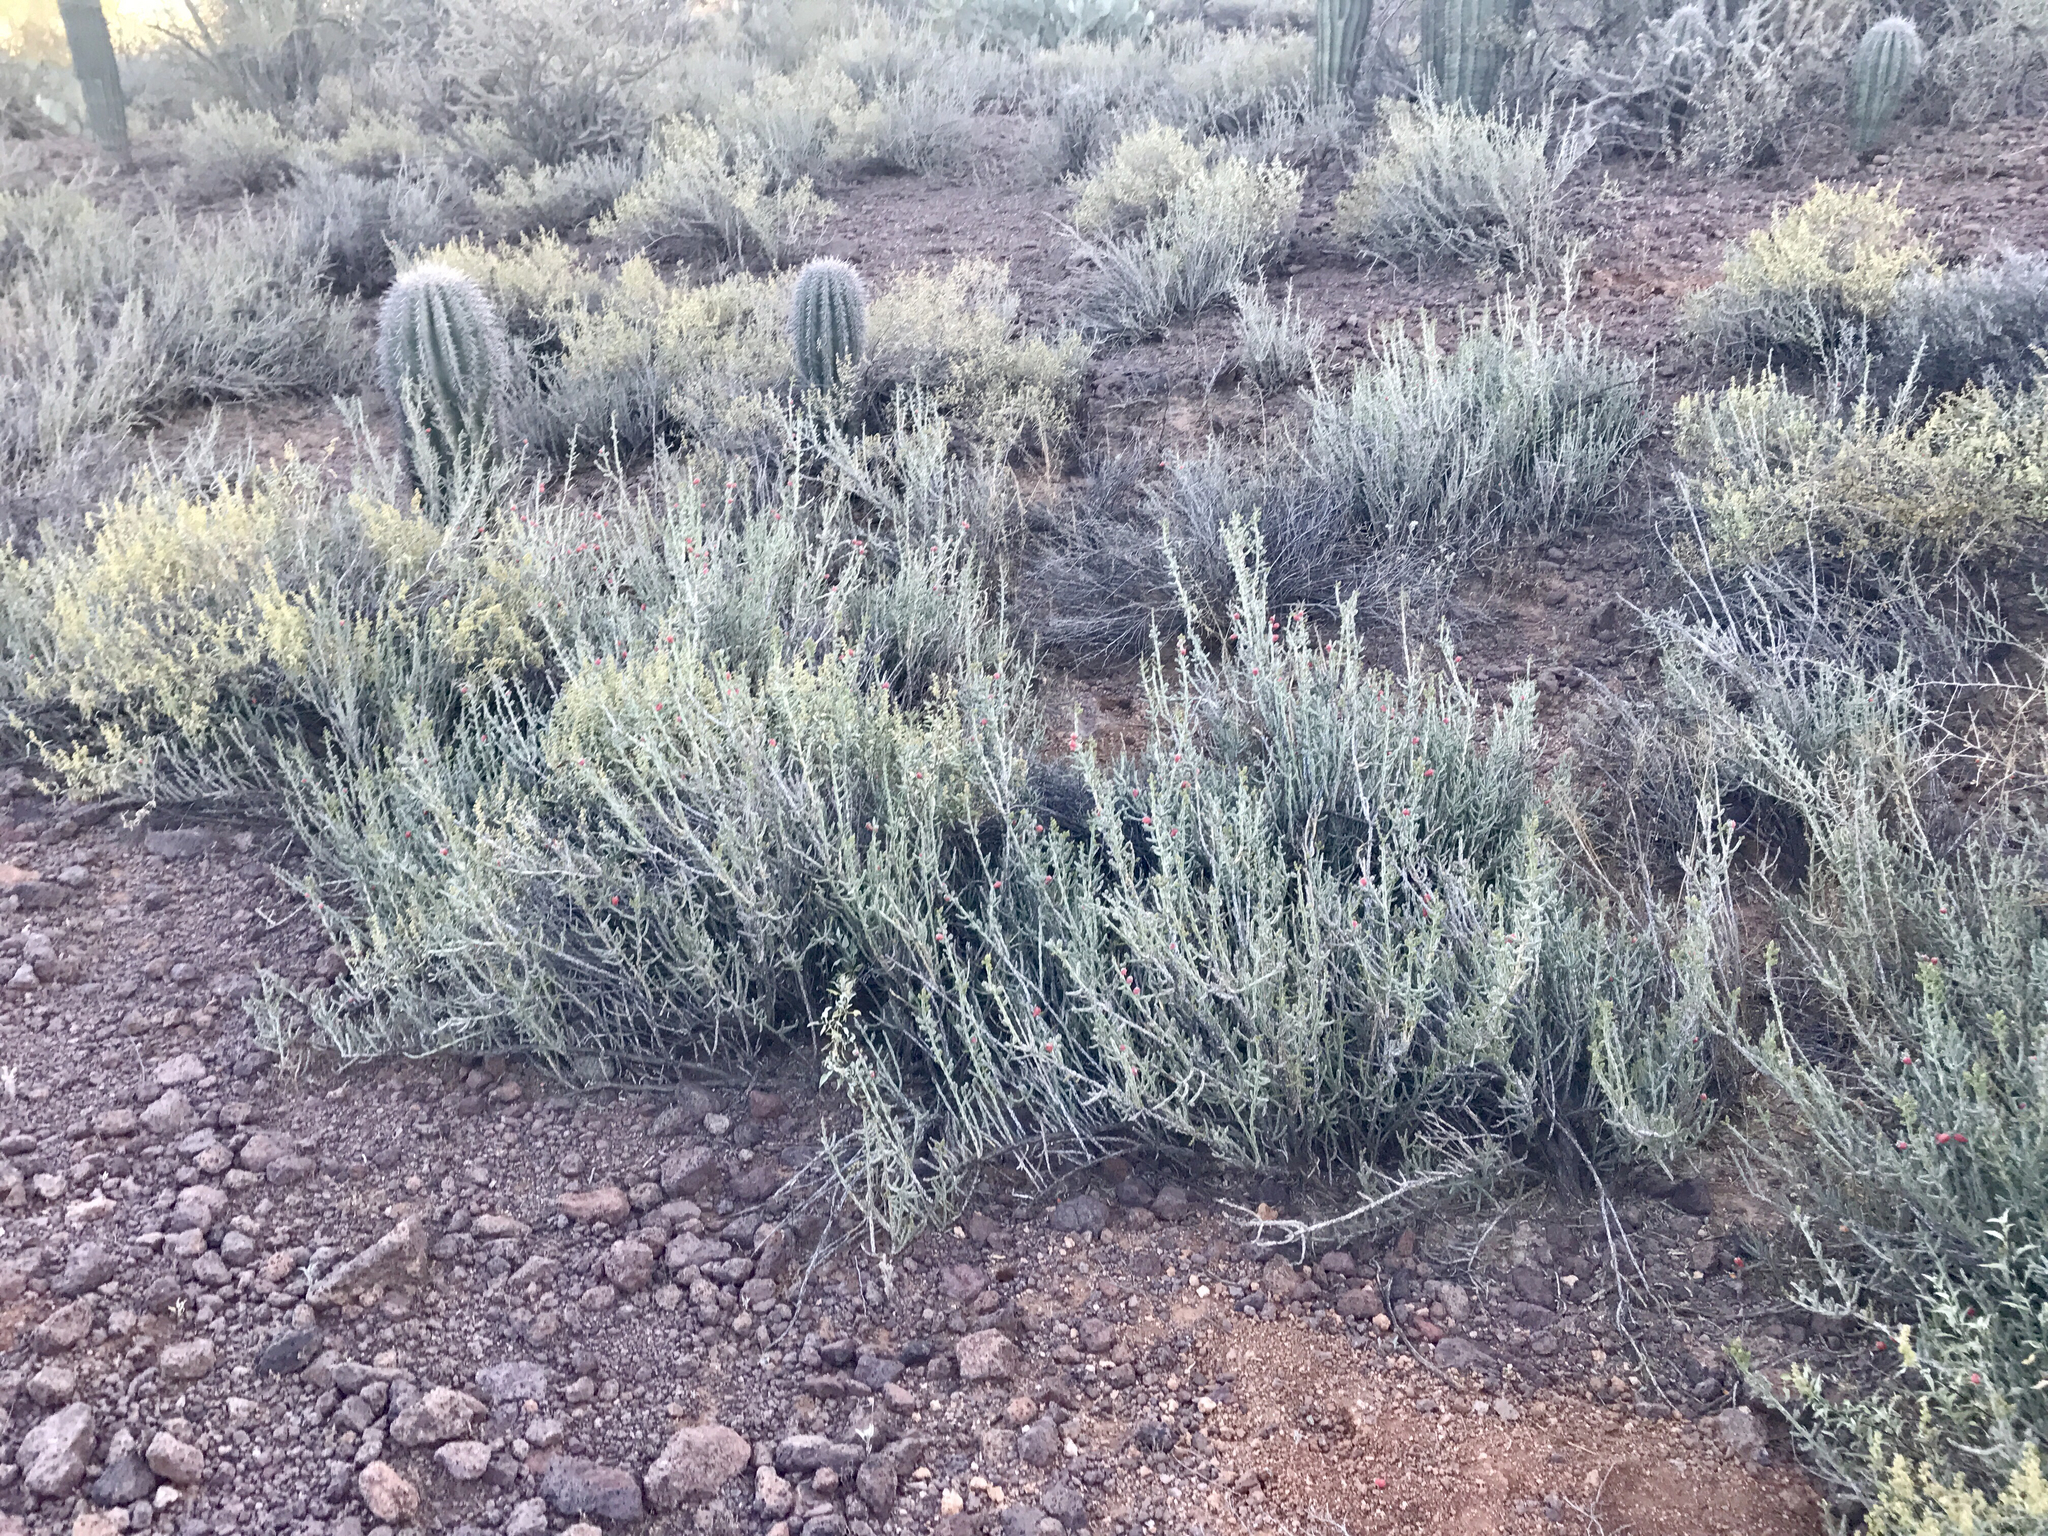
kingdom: Plantae
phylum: Tracheophyta
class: Magnoliopsida
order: Caryophyllales
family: Cactaceae
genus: Cylindropuntia
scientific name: Cylindropuntia leptocaulis
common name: Christmas cactus
